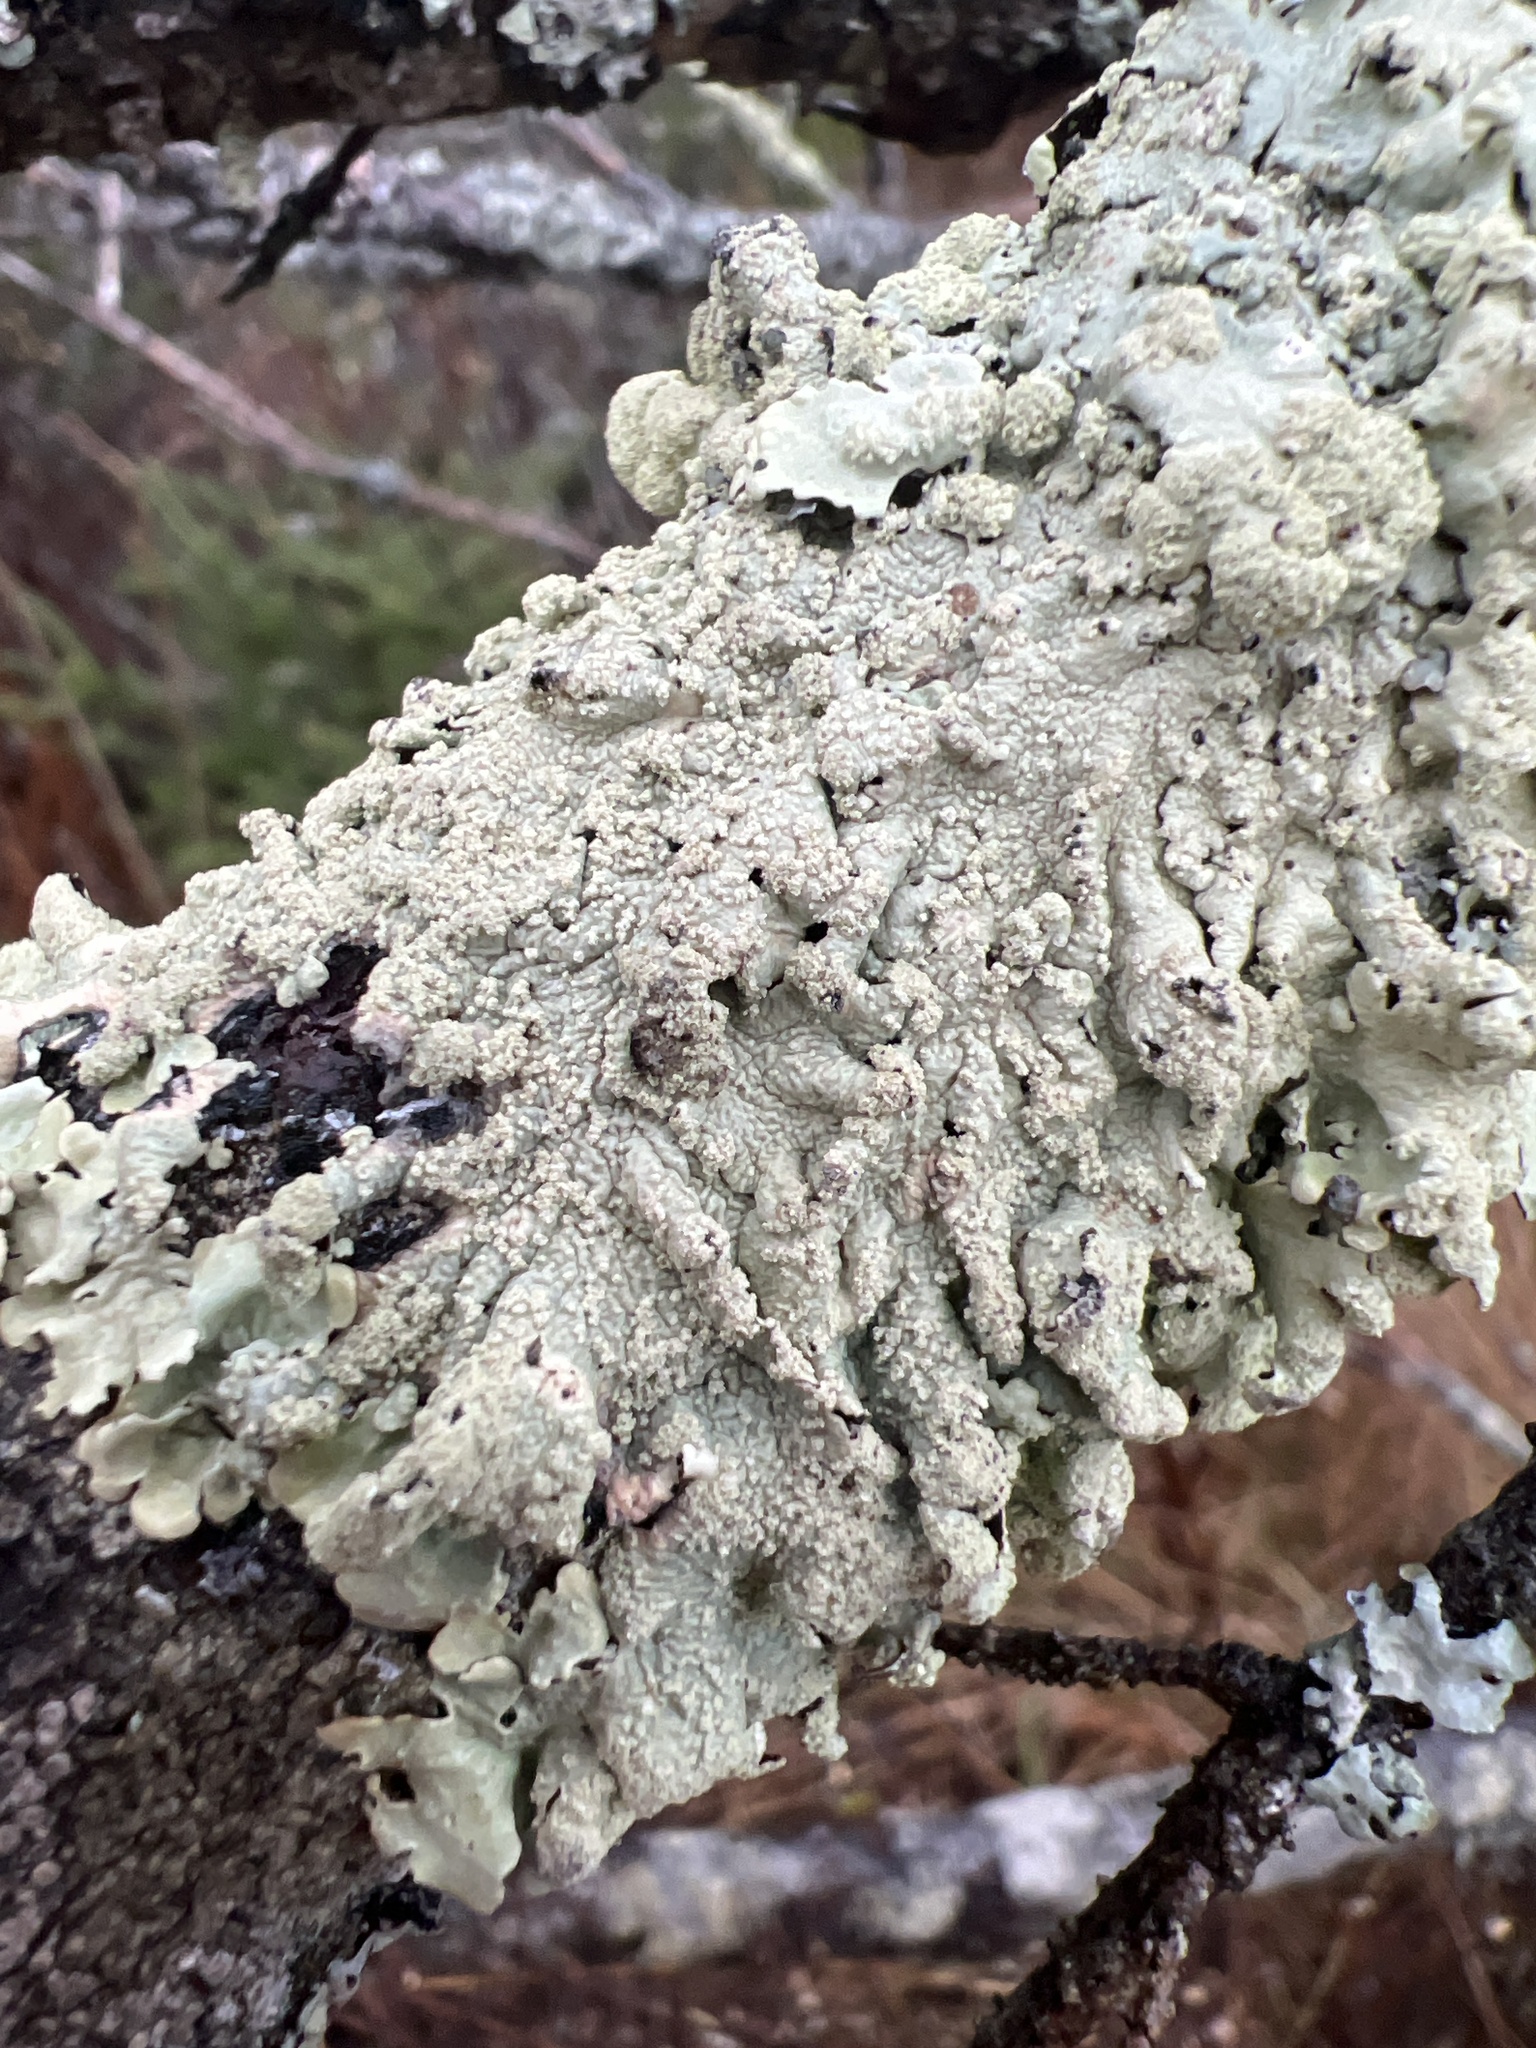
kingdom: Fungi
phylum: Ascomycota
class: Lecanoromycetes
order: Lecanorales
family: Parmeliaceae
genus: Flavoparmelia
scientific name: Flavoparmelia caperata
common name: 40-mile per hour lichen
